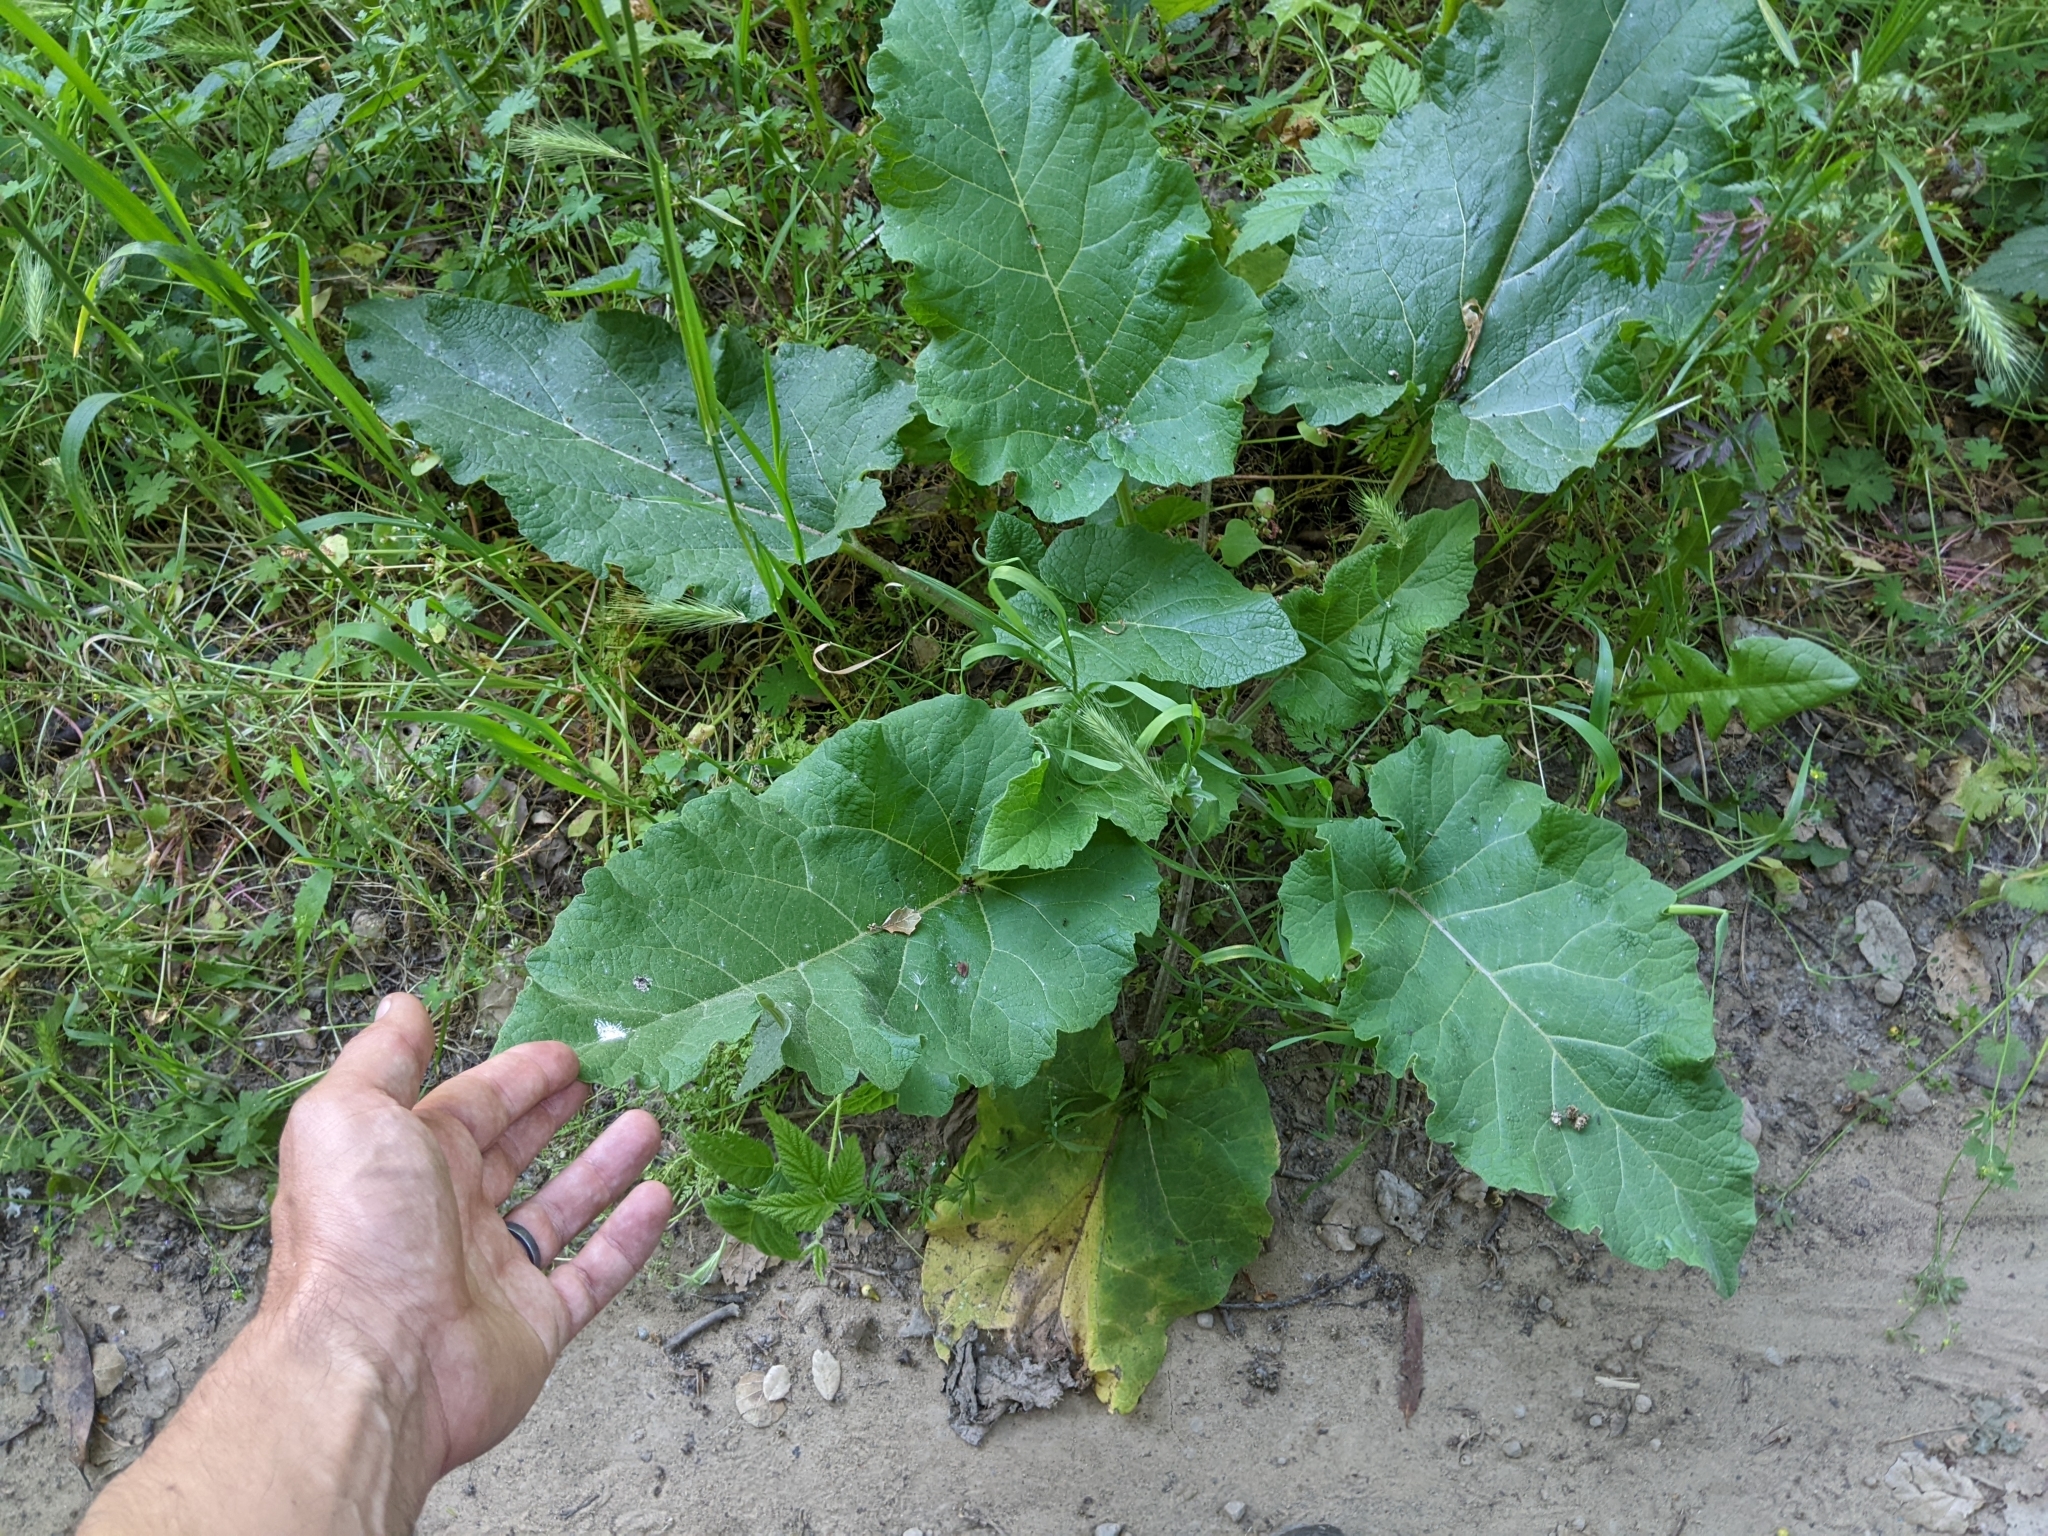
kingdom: Plantae
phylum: Tracheophyta
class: Magnoliopsida
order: Asterales
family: Asteraceae
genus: Arctium
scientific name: Arctium
